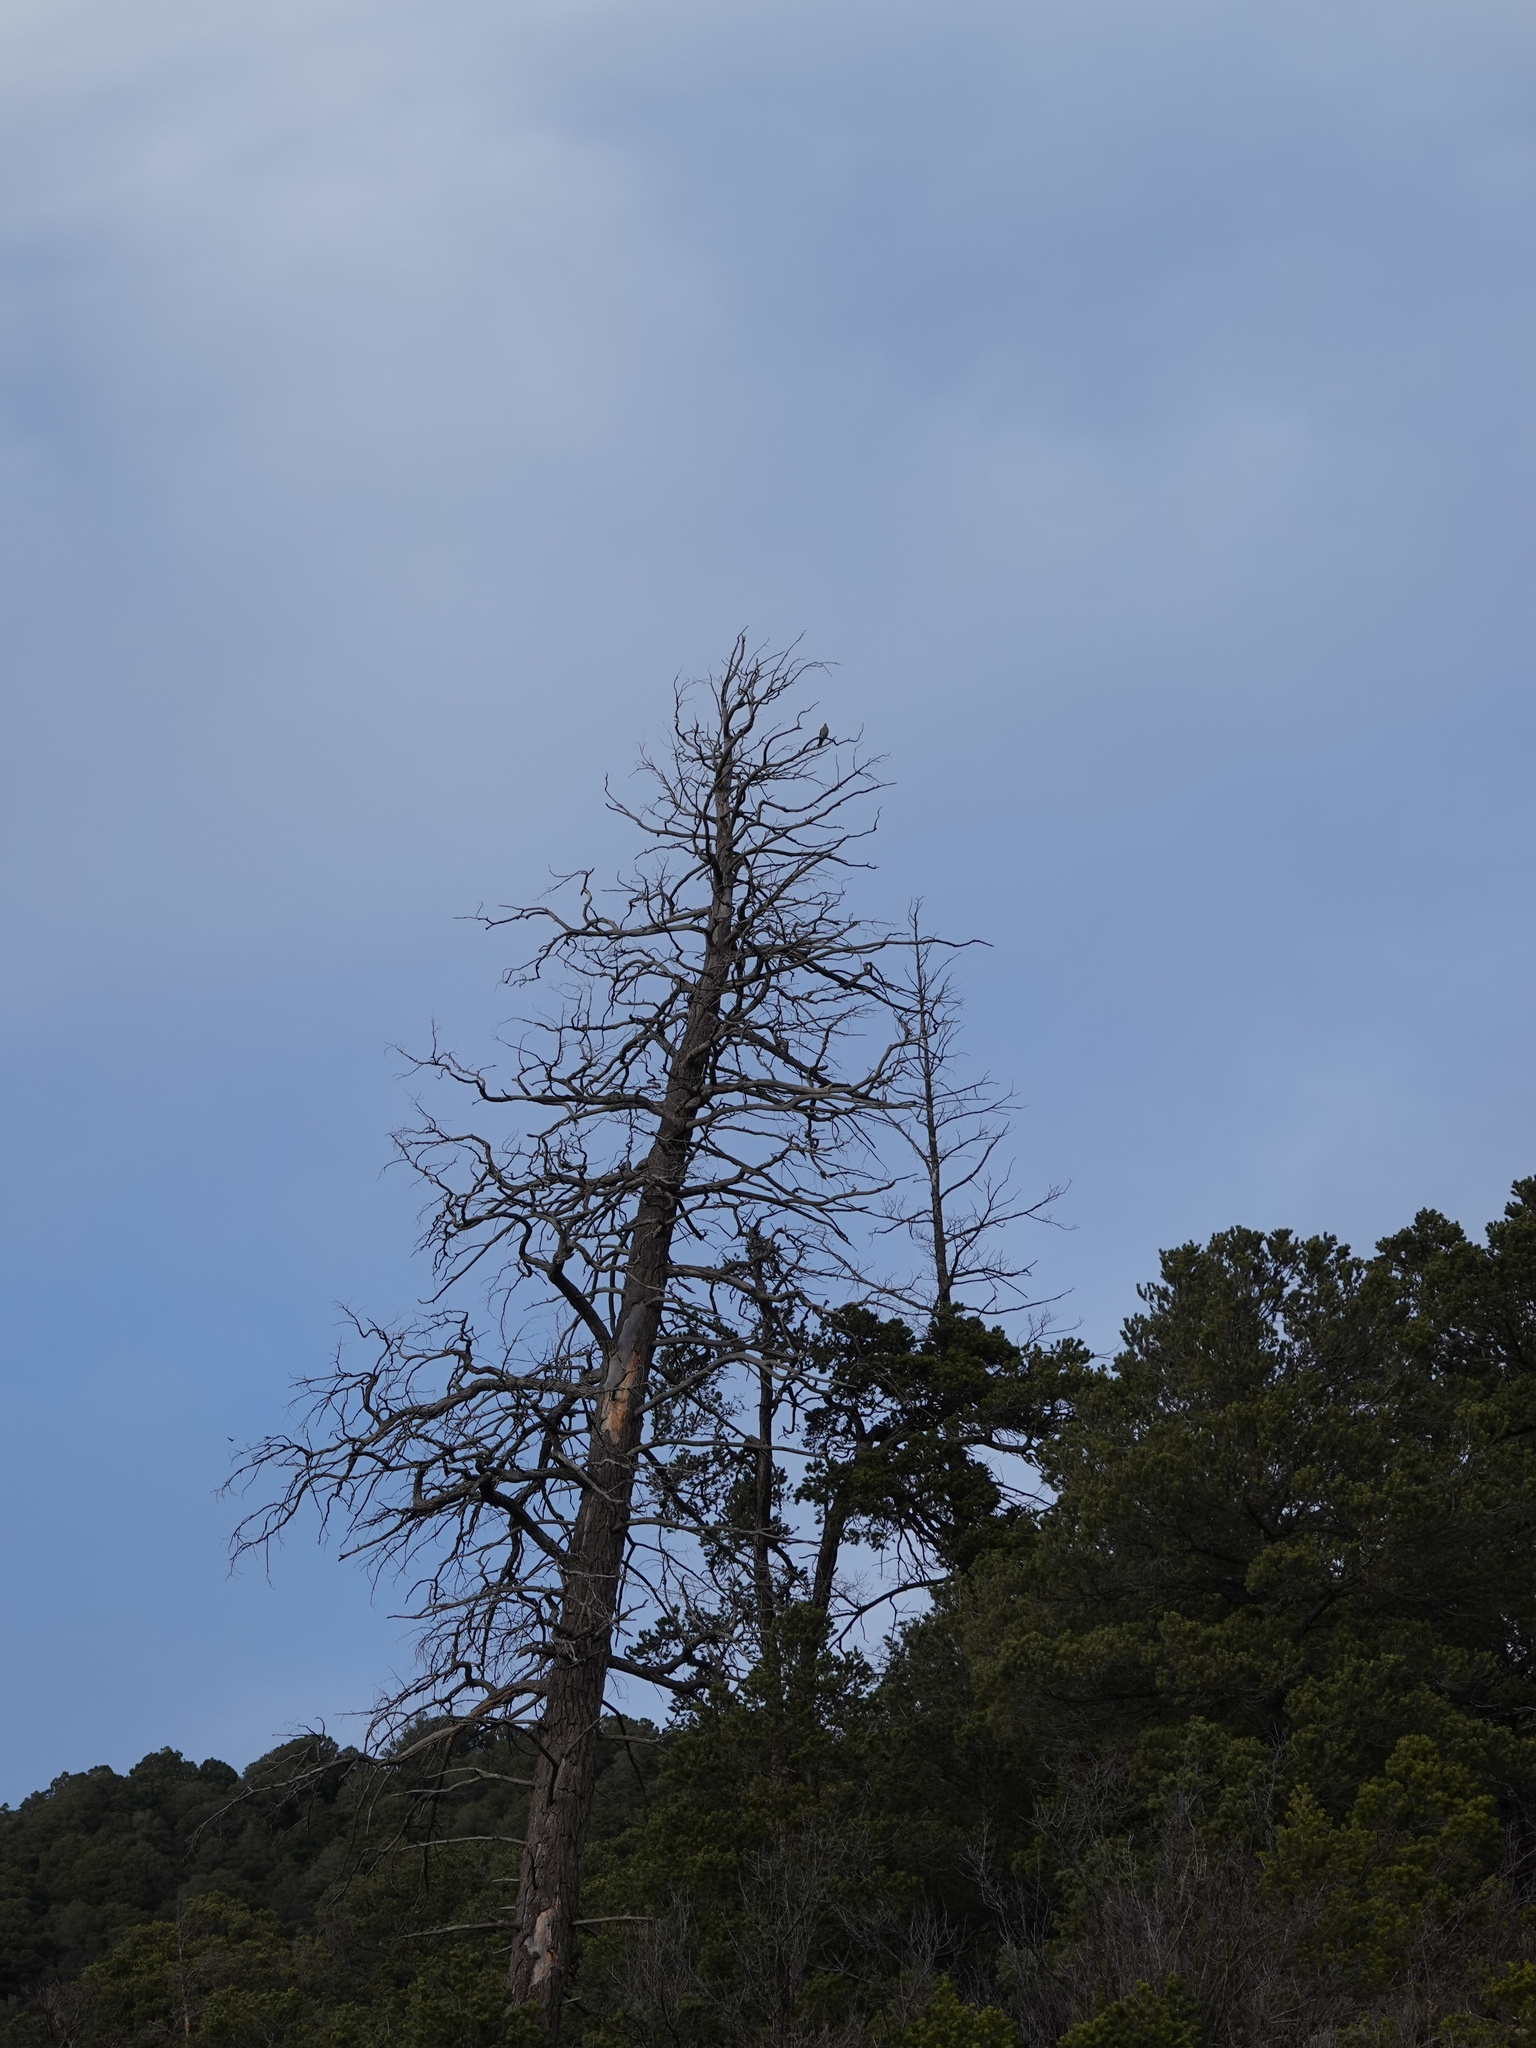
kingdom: Animalia
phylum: Chordata
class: Aves
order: Columbiformes
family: Columbidae
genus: Zenaida
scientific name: Zenaida asiatica
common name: White-winged dove
